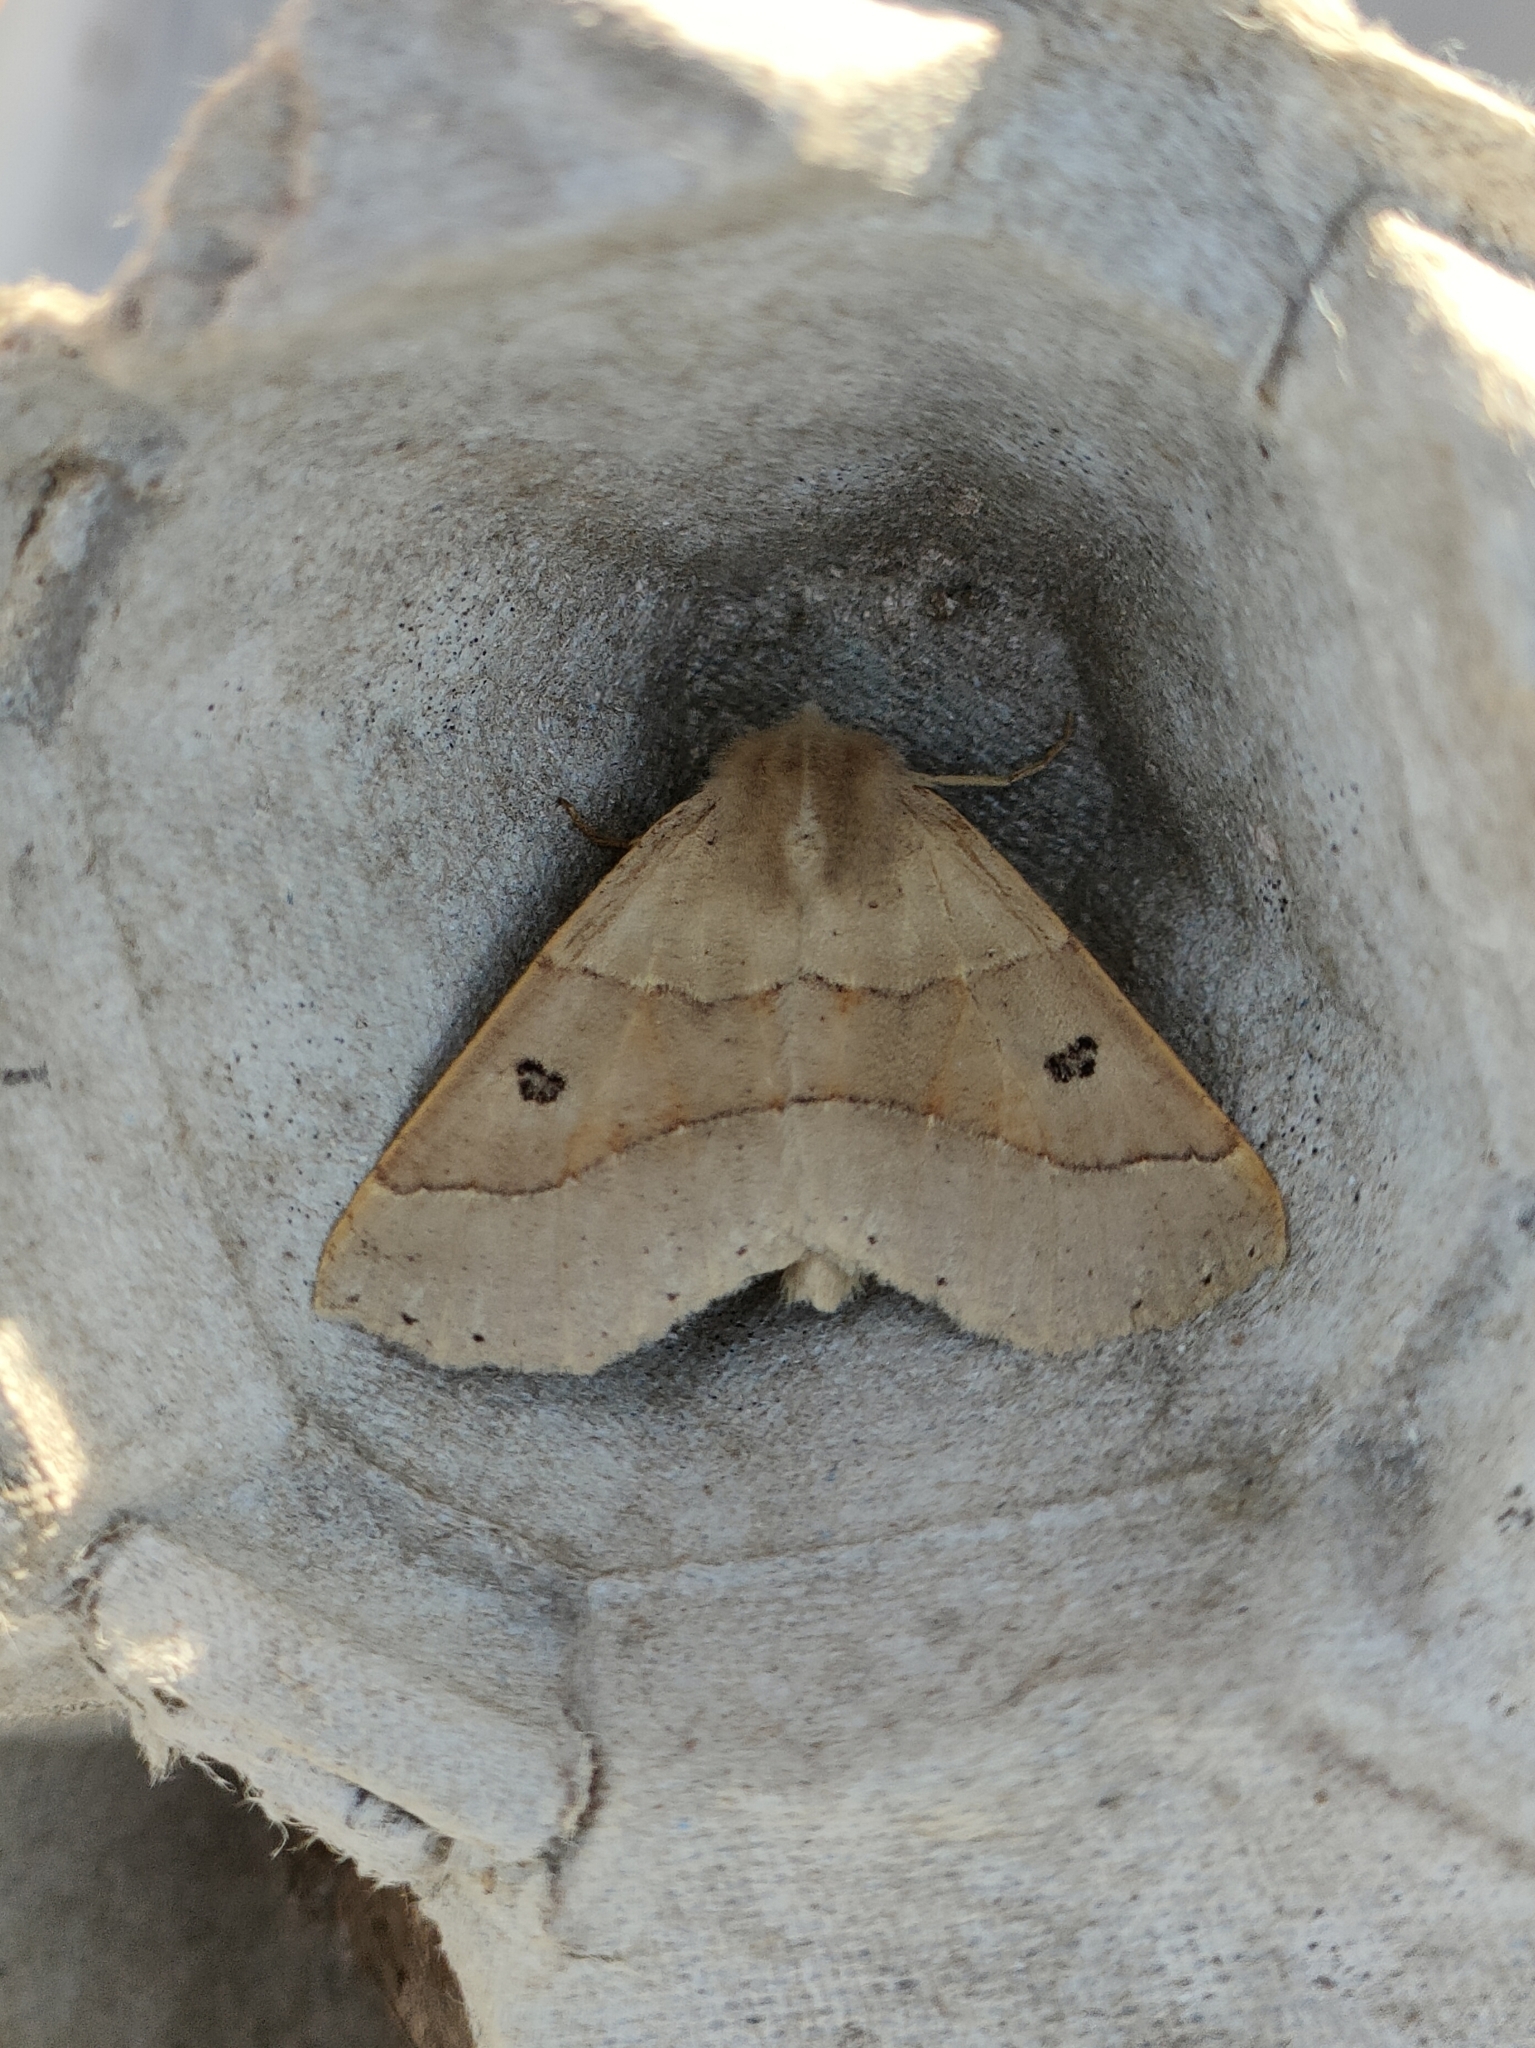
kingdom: Animalia
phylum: Arthropoda
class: Insecta
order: Lepidoptera
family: Geometridae
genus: Crocallis
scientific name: Crocallis dardoinaria
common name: Dusky scalloped oak
